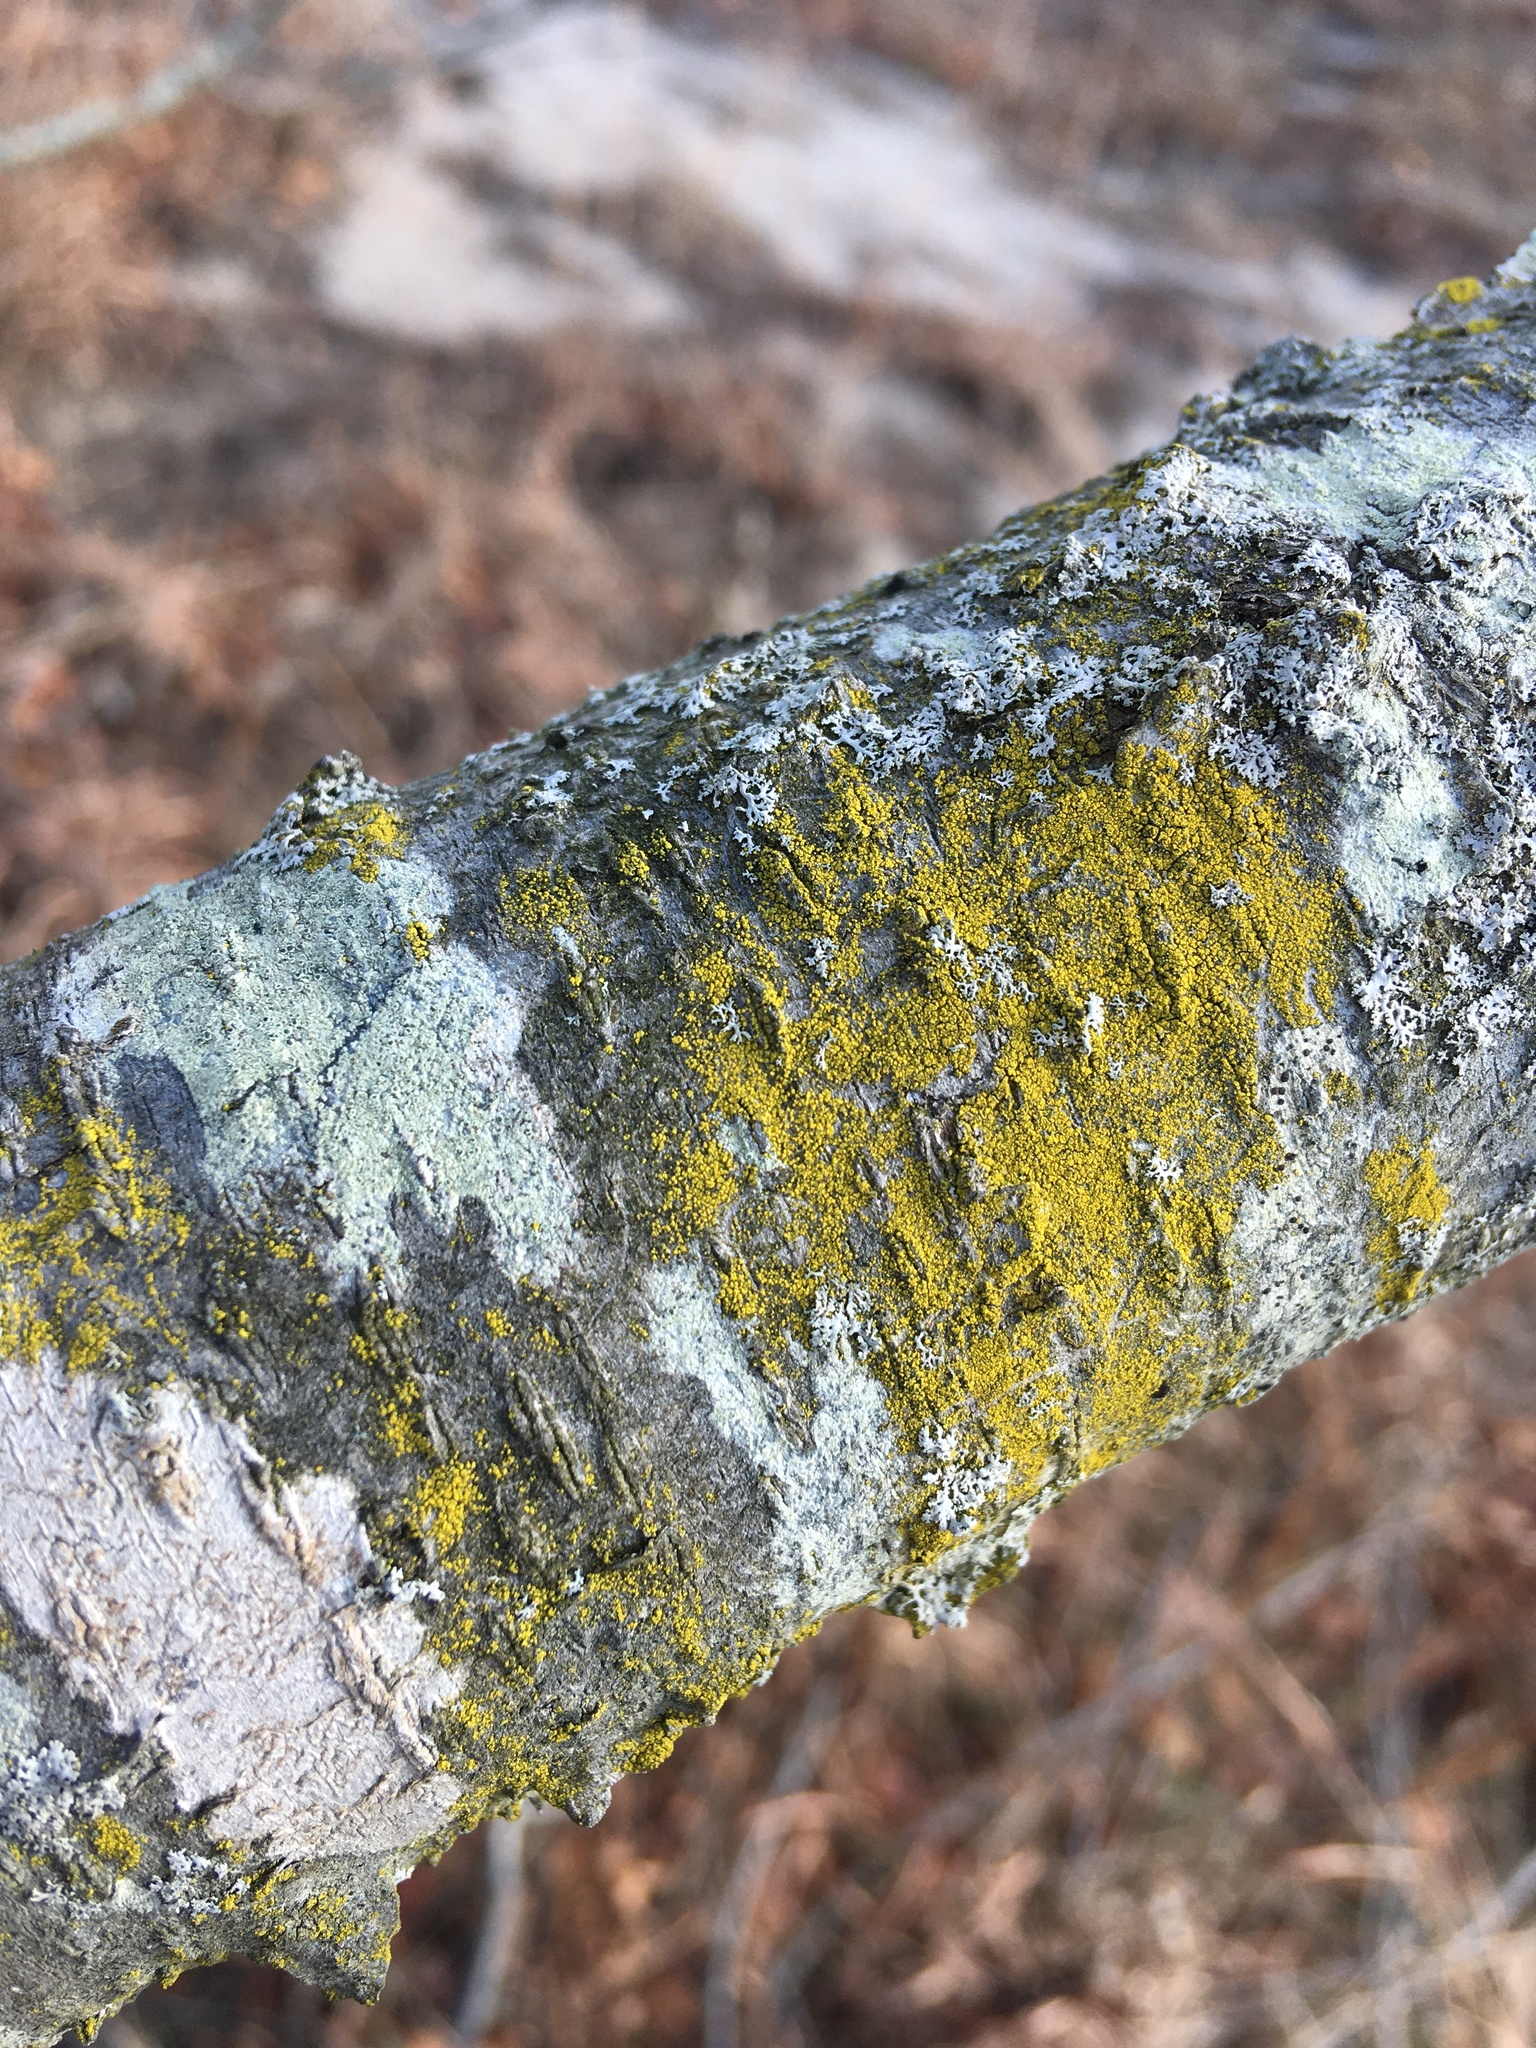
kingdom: Fungi
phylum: Ascomycota
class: Candelariomycetes
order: Candelariales
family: Candelariaceae
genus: Candelariella
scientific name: Candelariella efflorescens
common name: Powdery goldspeck
